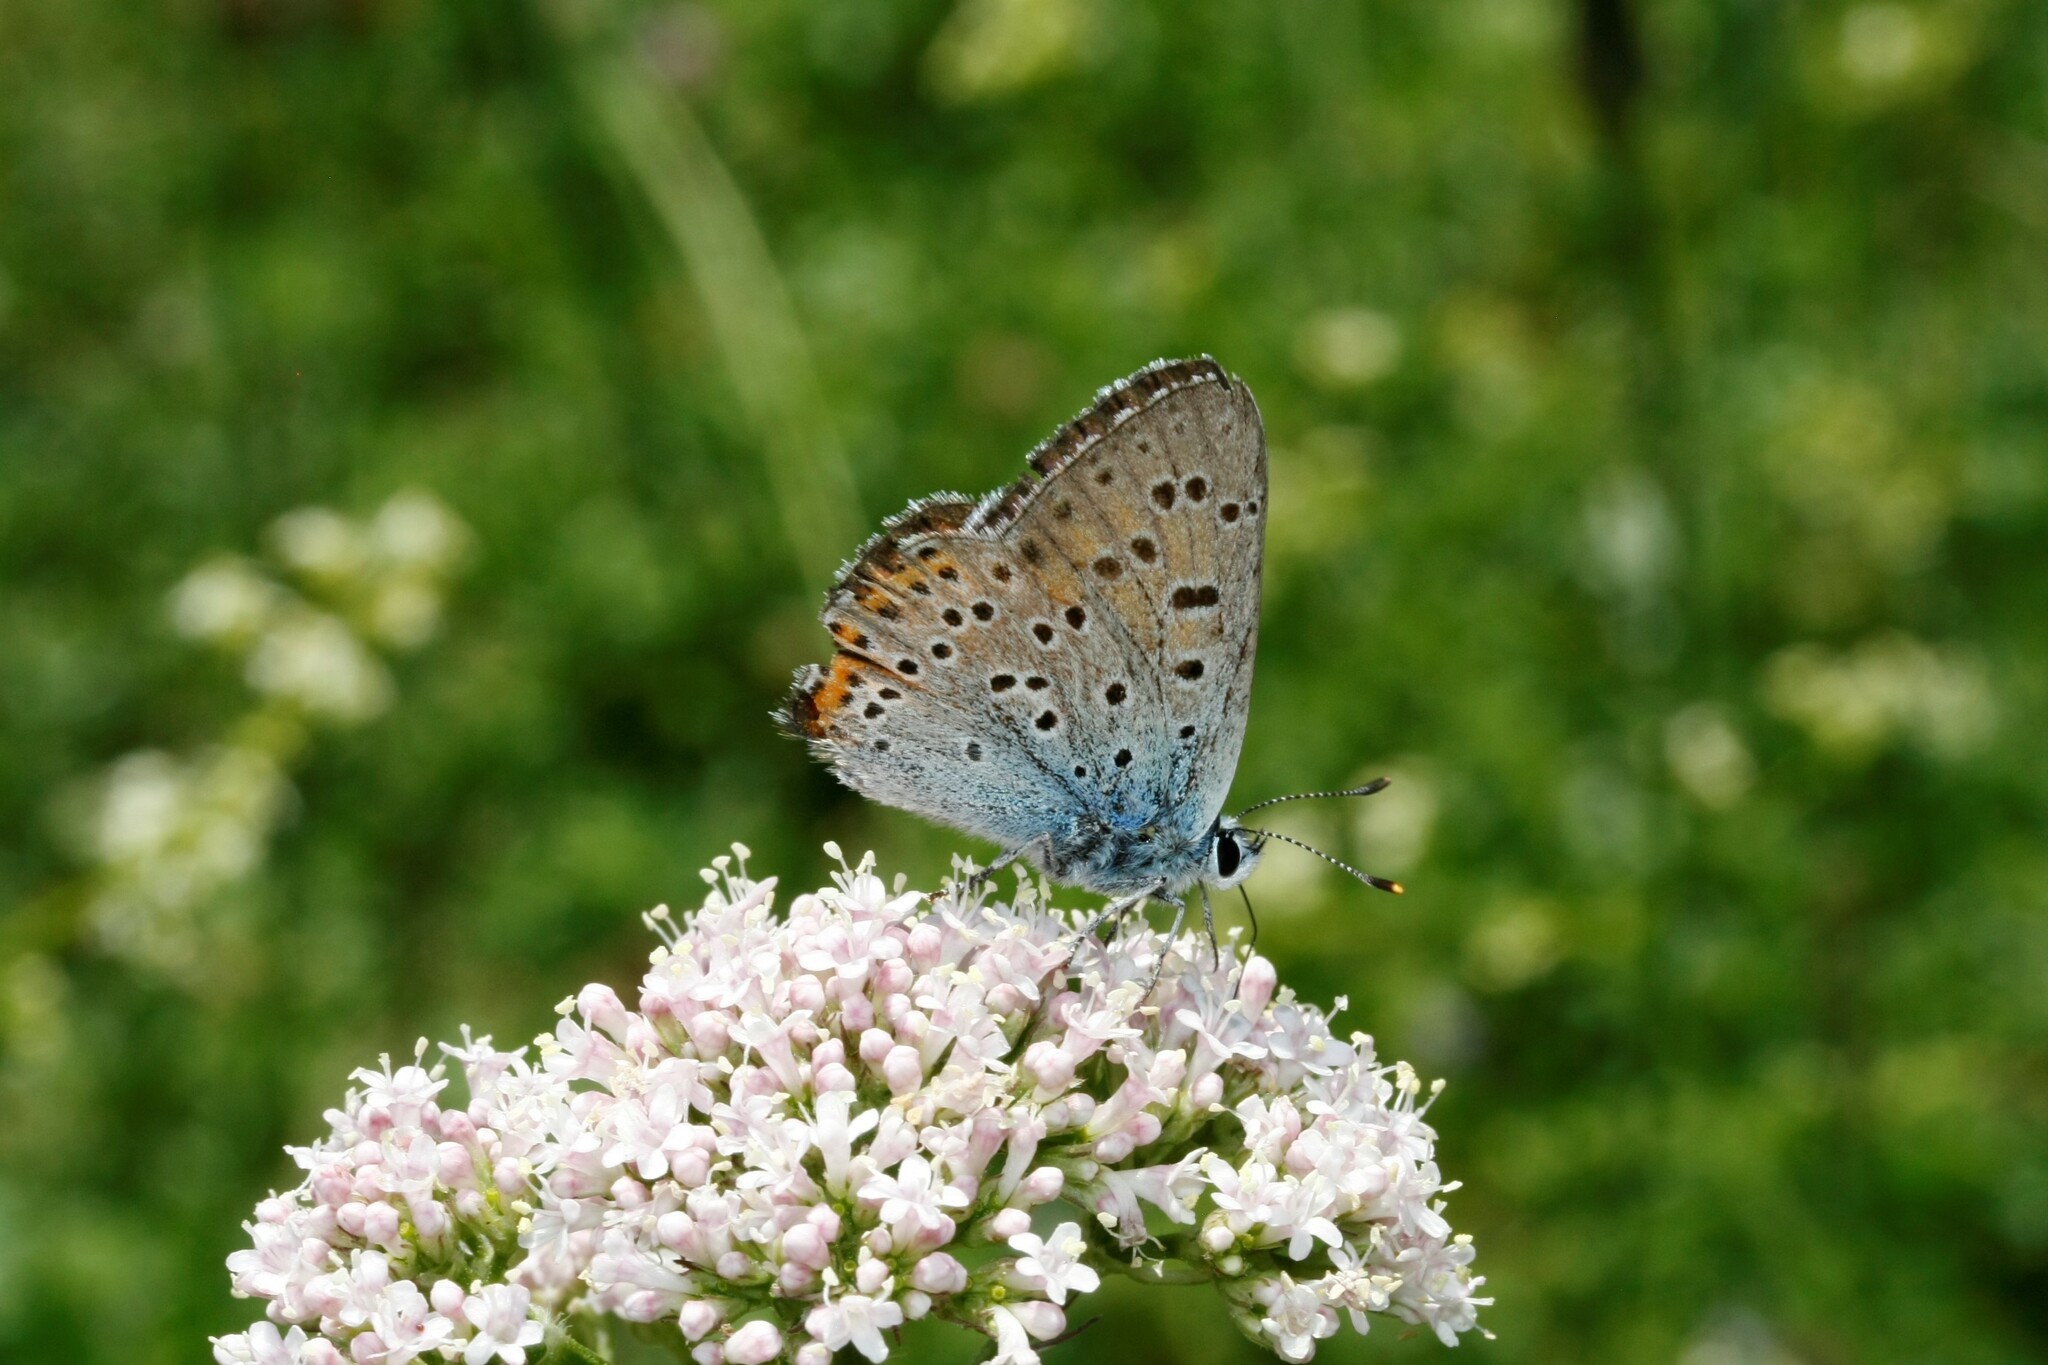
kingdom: Animalia
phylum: Arthropoda
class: Insecta
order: Lepidoptera
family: Lycaenidae
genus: Lycaena
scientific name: Lycaena alciphron
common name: Purple-shot copper
